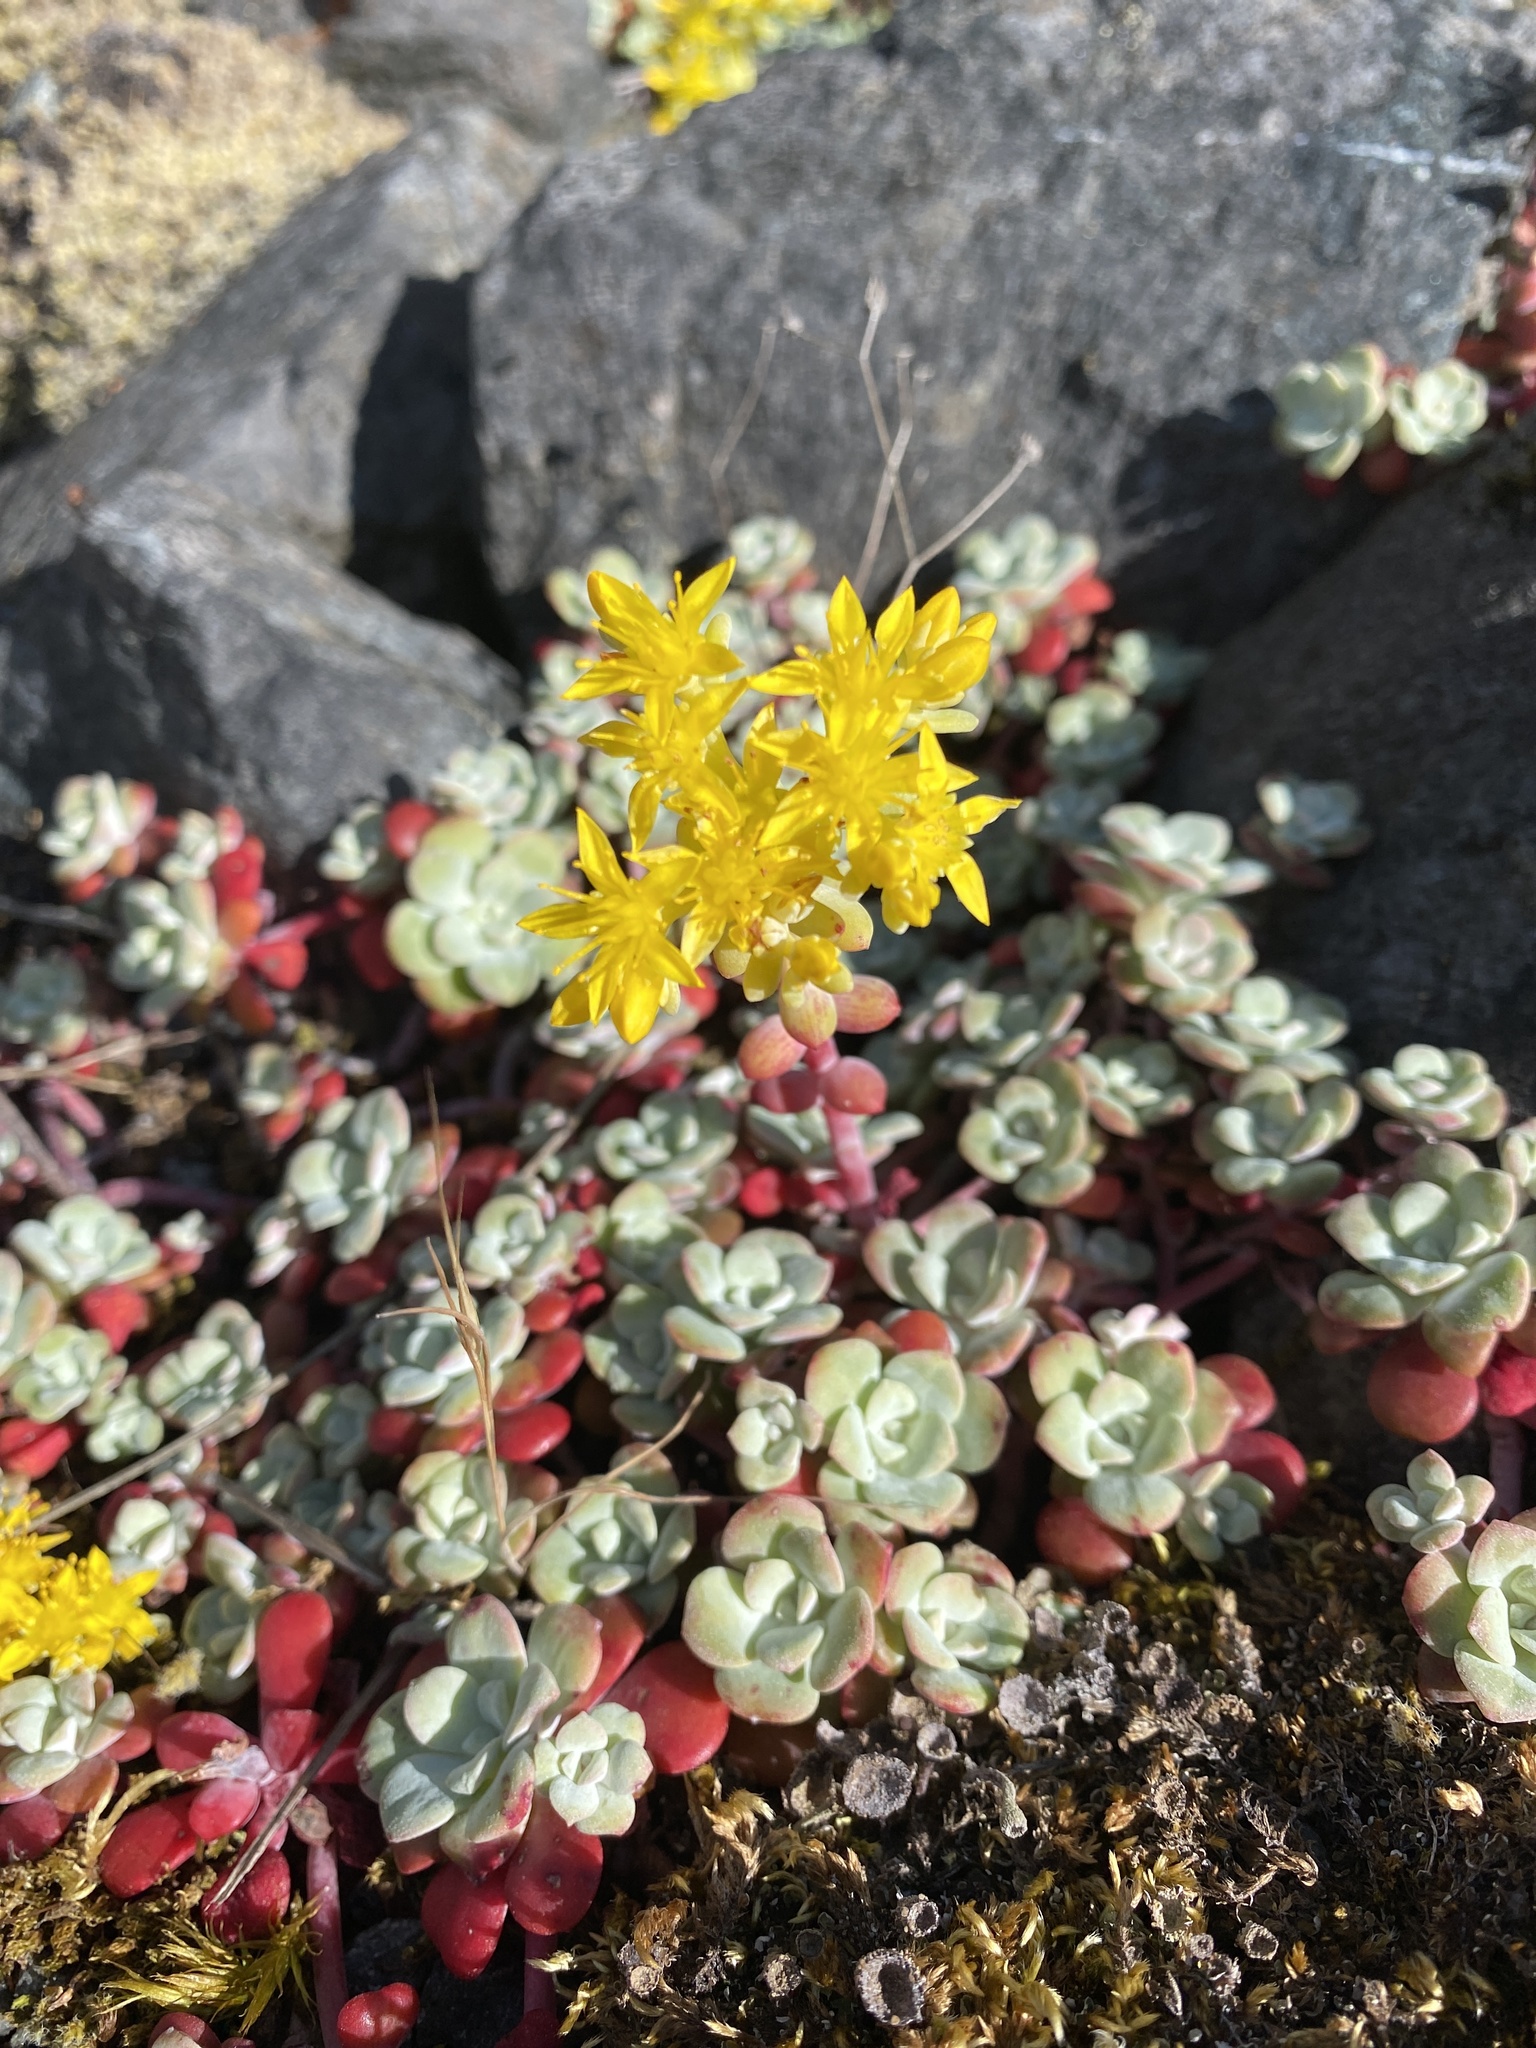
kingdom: Plantae
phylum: Tracheophyta
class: Magnoliopsida
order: Saxifragales
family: Crassulaceae
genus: Sedum
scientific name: Sedum spathulifolium
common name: Colorado stonecrop
